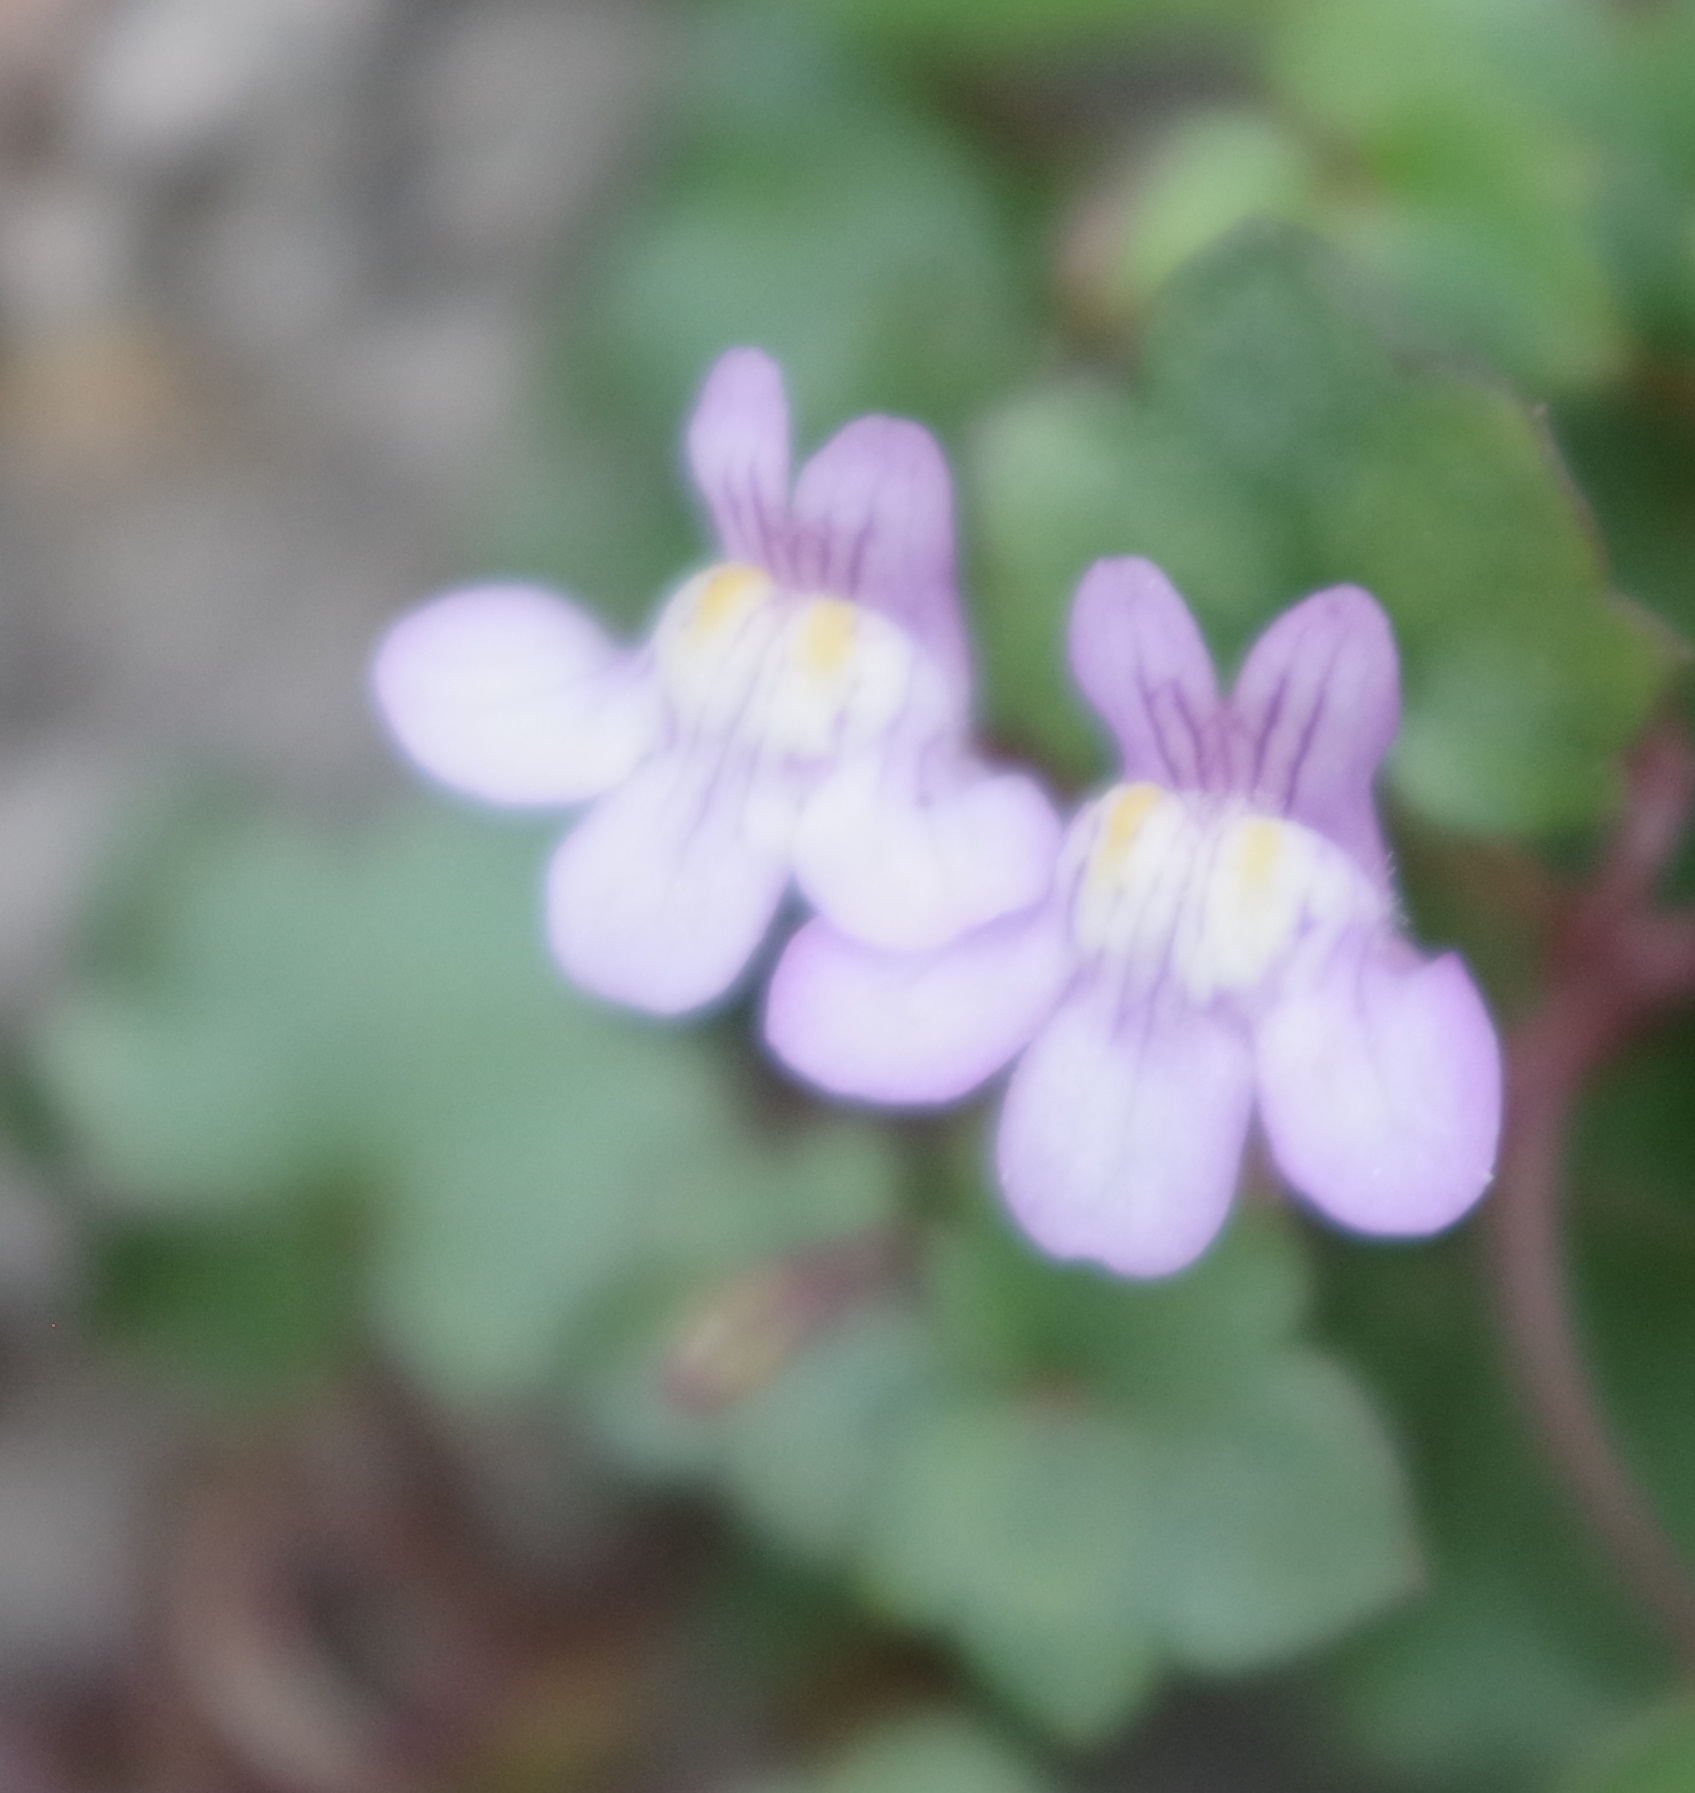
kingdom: Plantae
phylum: Tracheophyta
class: Magnoliopsida
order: Lamiales
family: Plantaginaceae
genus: Cymbalaria
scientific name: Cymbalaria muralis
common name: Ivy-leaved toadflax
